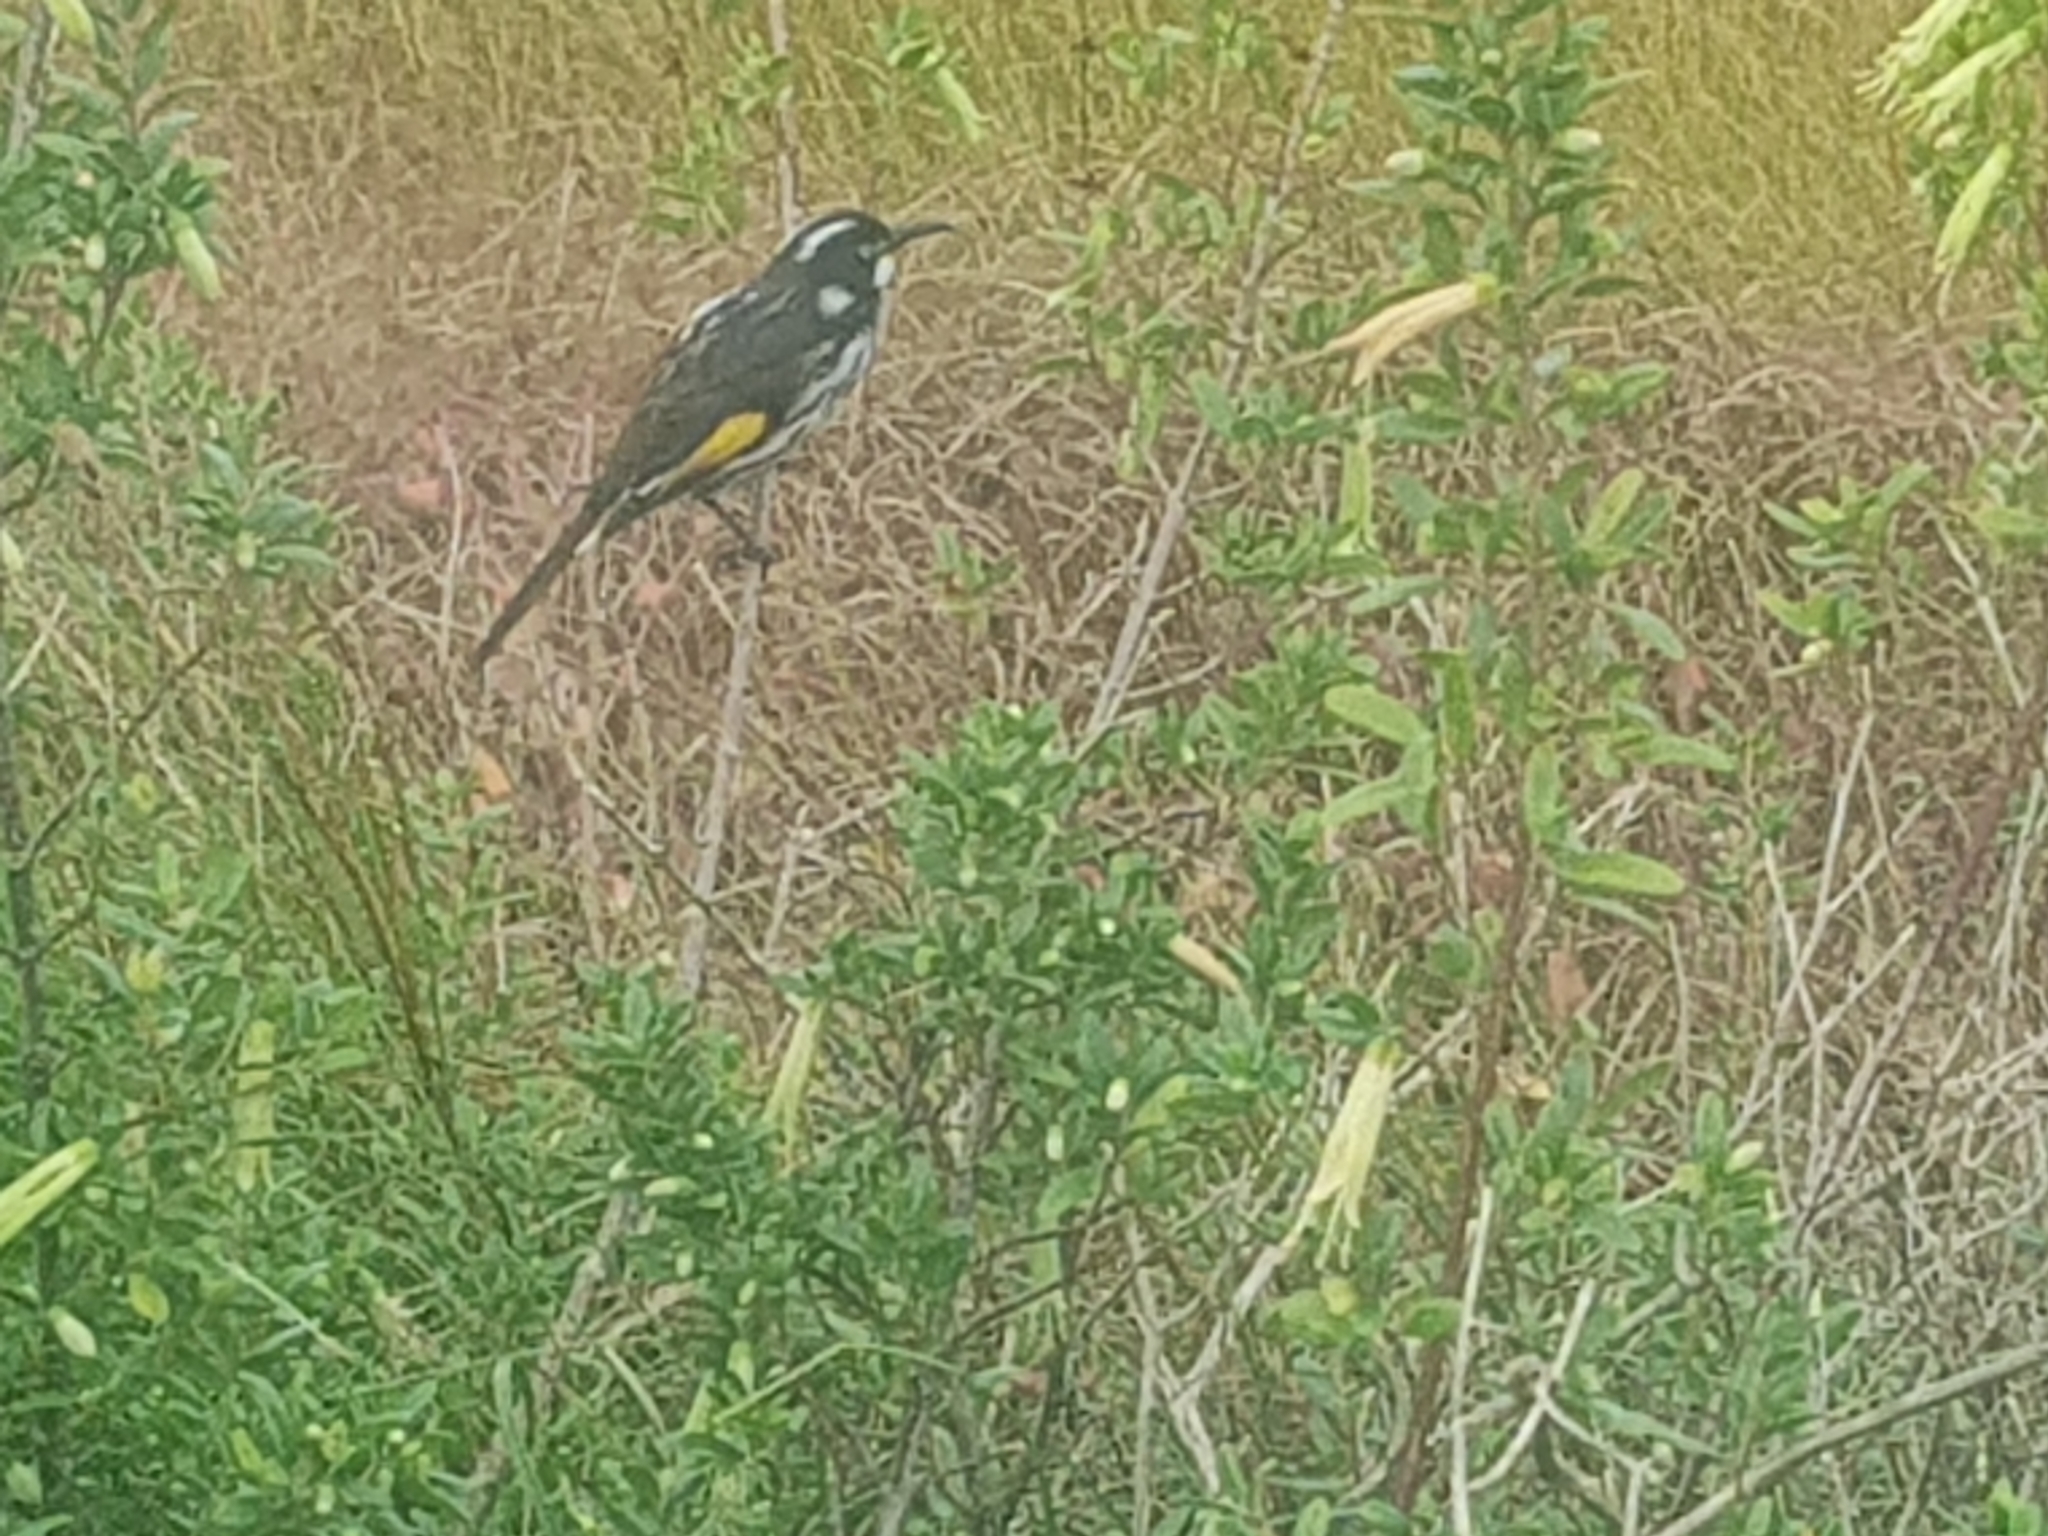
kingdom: Animalia
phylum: Chordata
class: Aves
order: Passeriformes
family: Meliphagidae
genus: Phylidonyris
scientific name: Phylidonyris novaehollandiae
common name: New holland honeyeater
